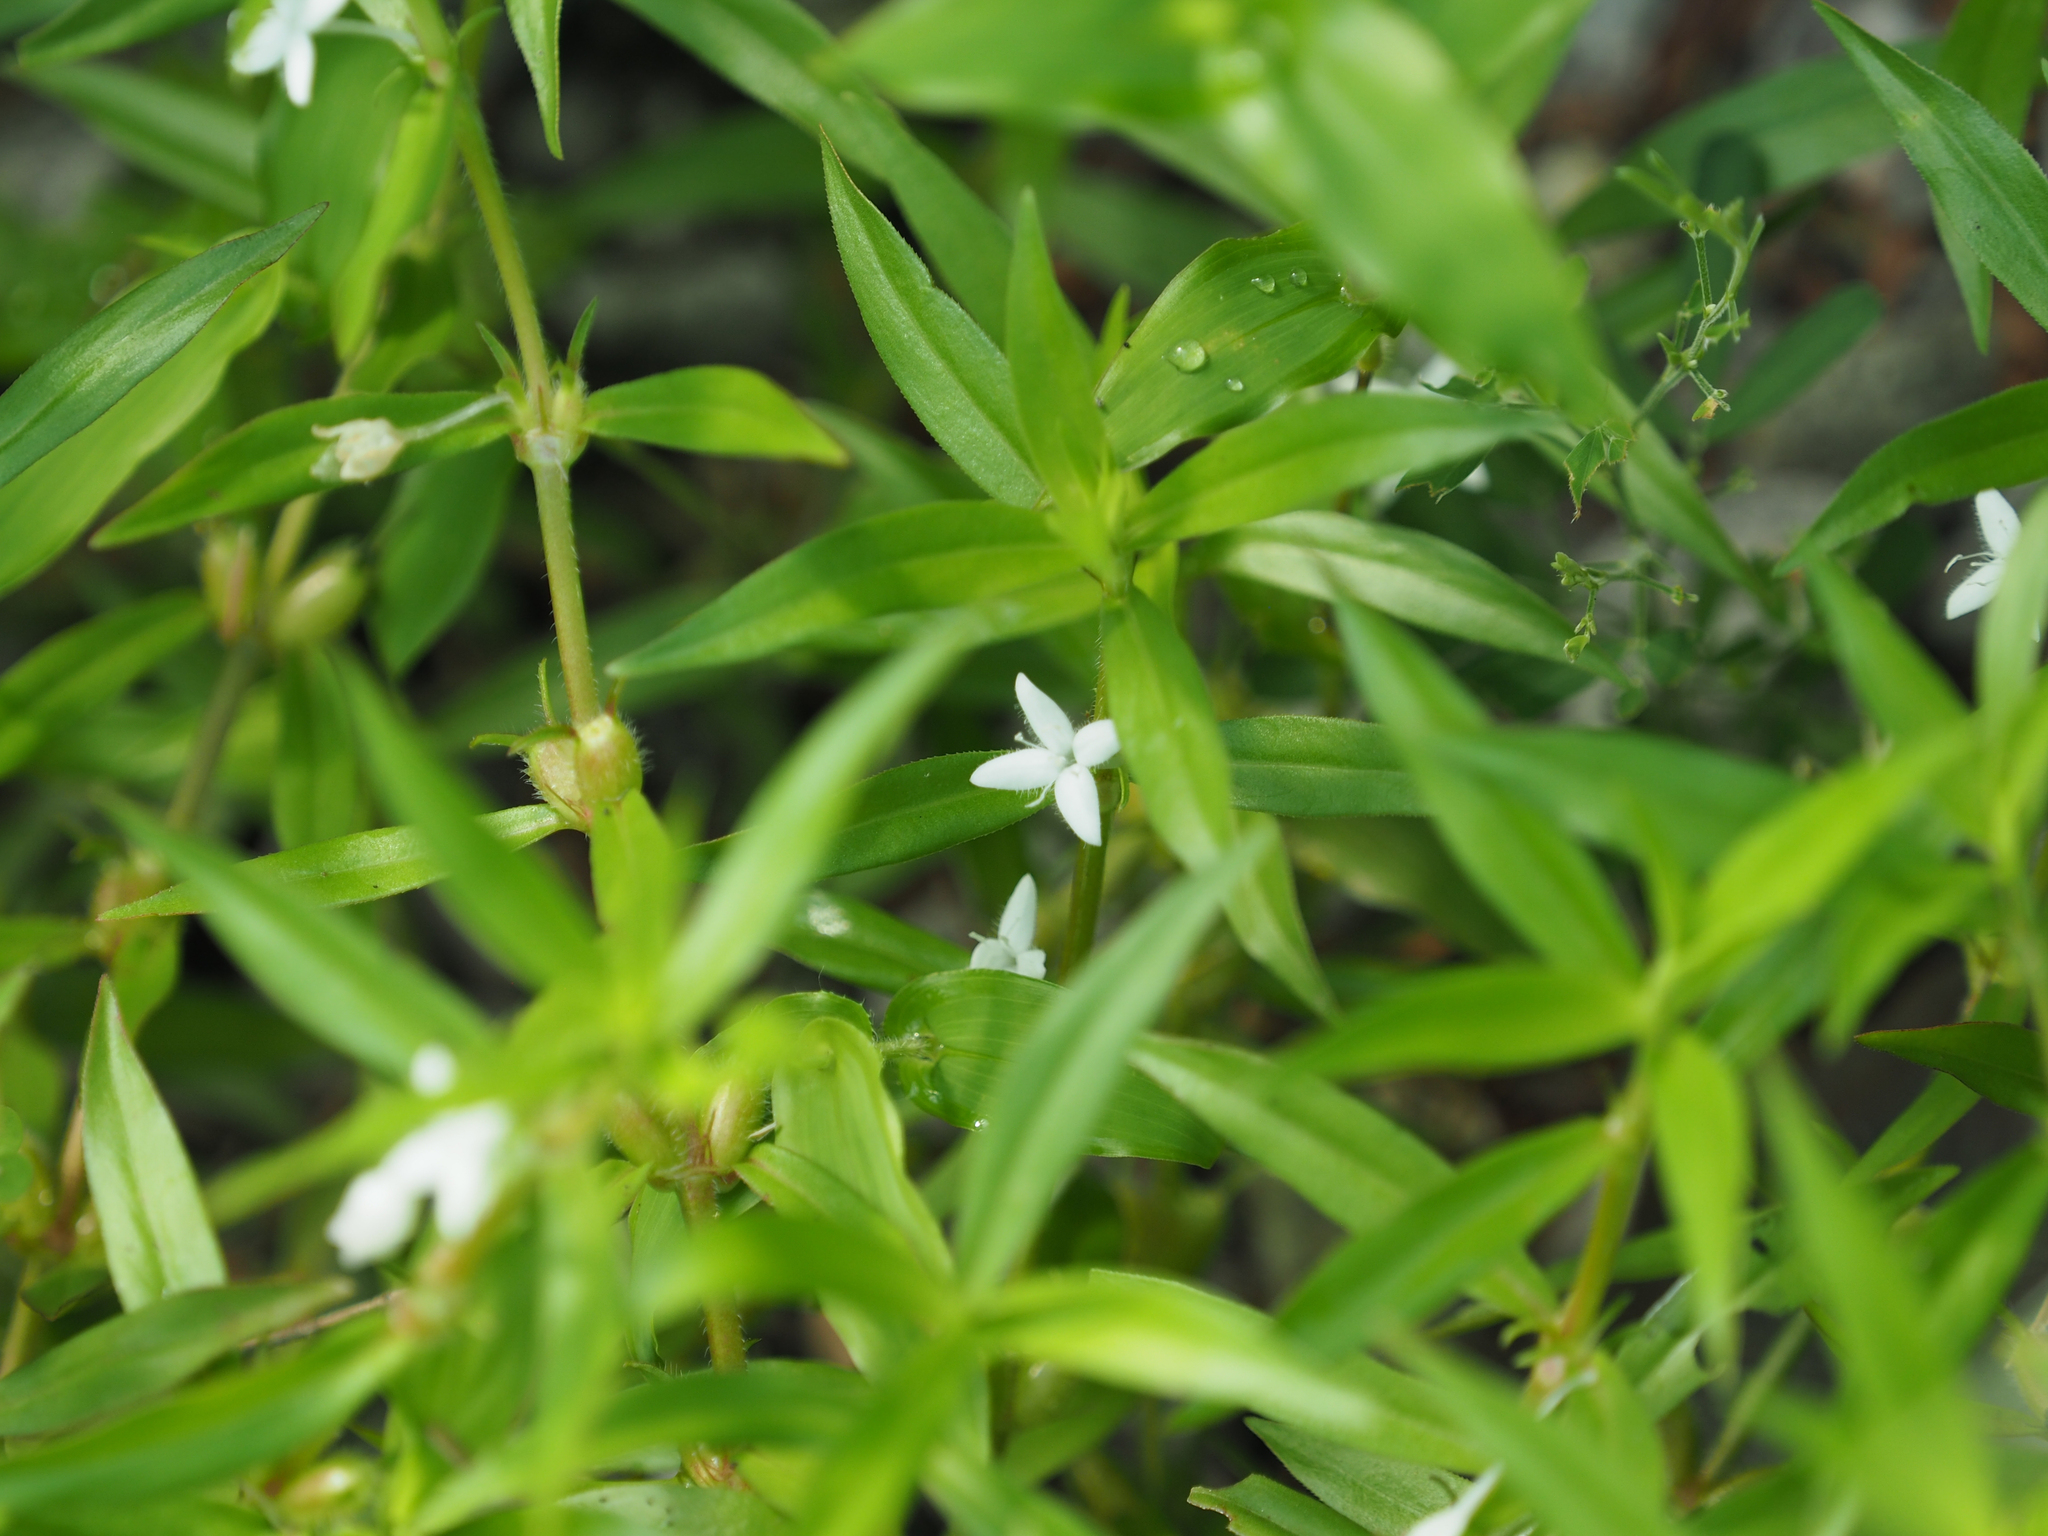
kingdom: Plantae
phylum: Tracheophyta
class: Magnoliopsida
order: Gentianales
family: Rubiaceae
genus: Diodia
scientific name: Diodia virginiana
